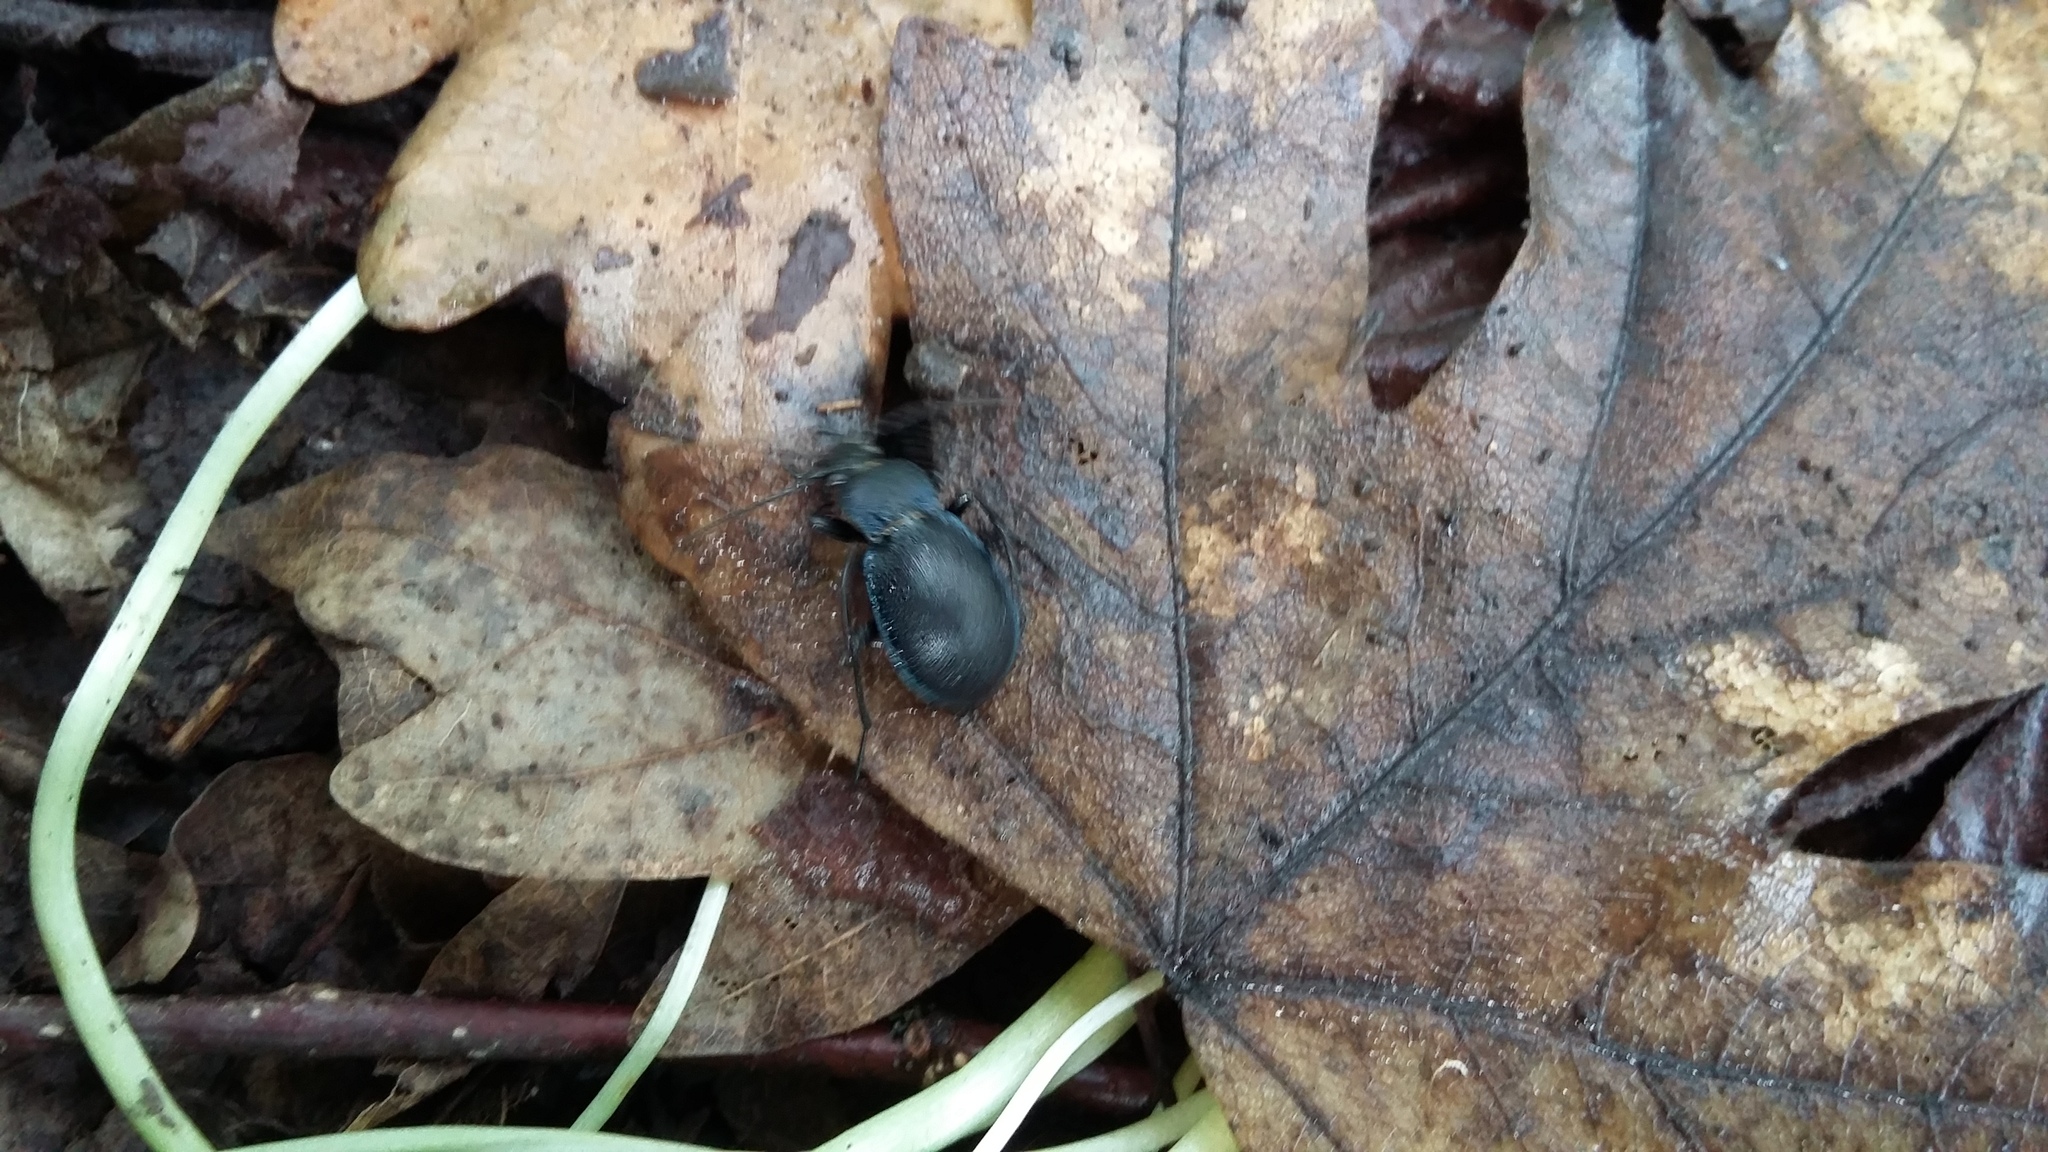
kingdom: Animalia
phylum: Arthropoda
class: Insecta
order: Coleoptera
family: Carabidae
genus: Carabus
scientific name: Carabus convexus
